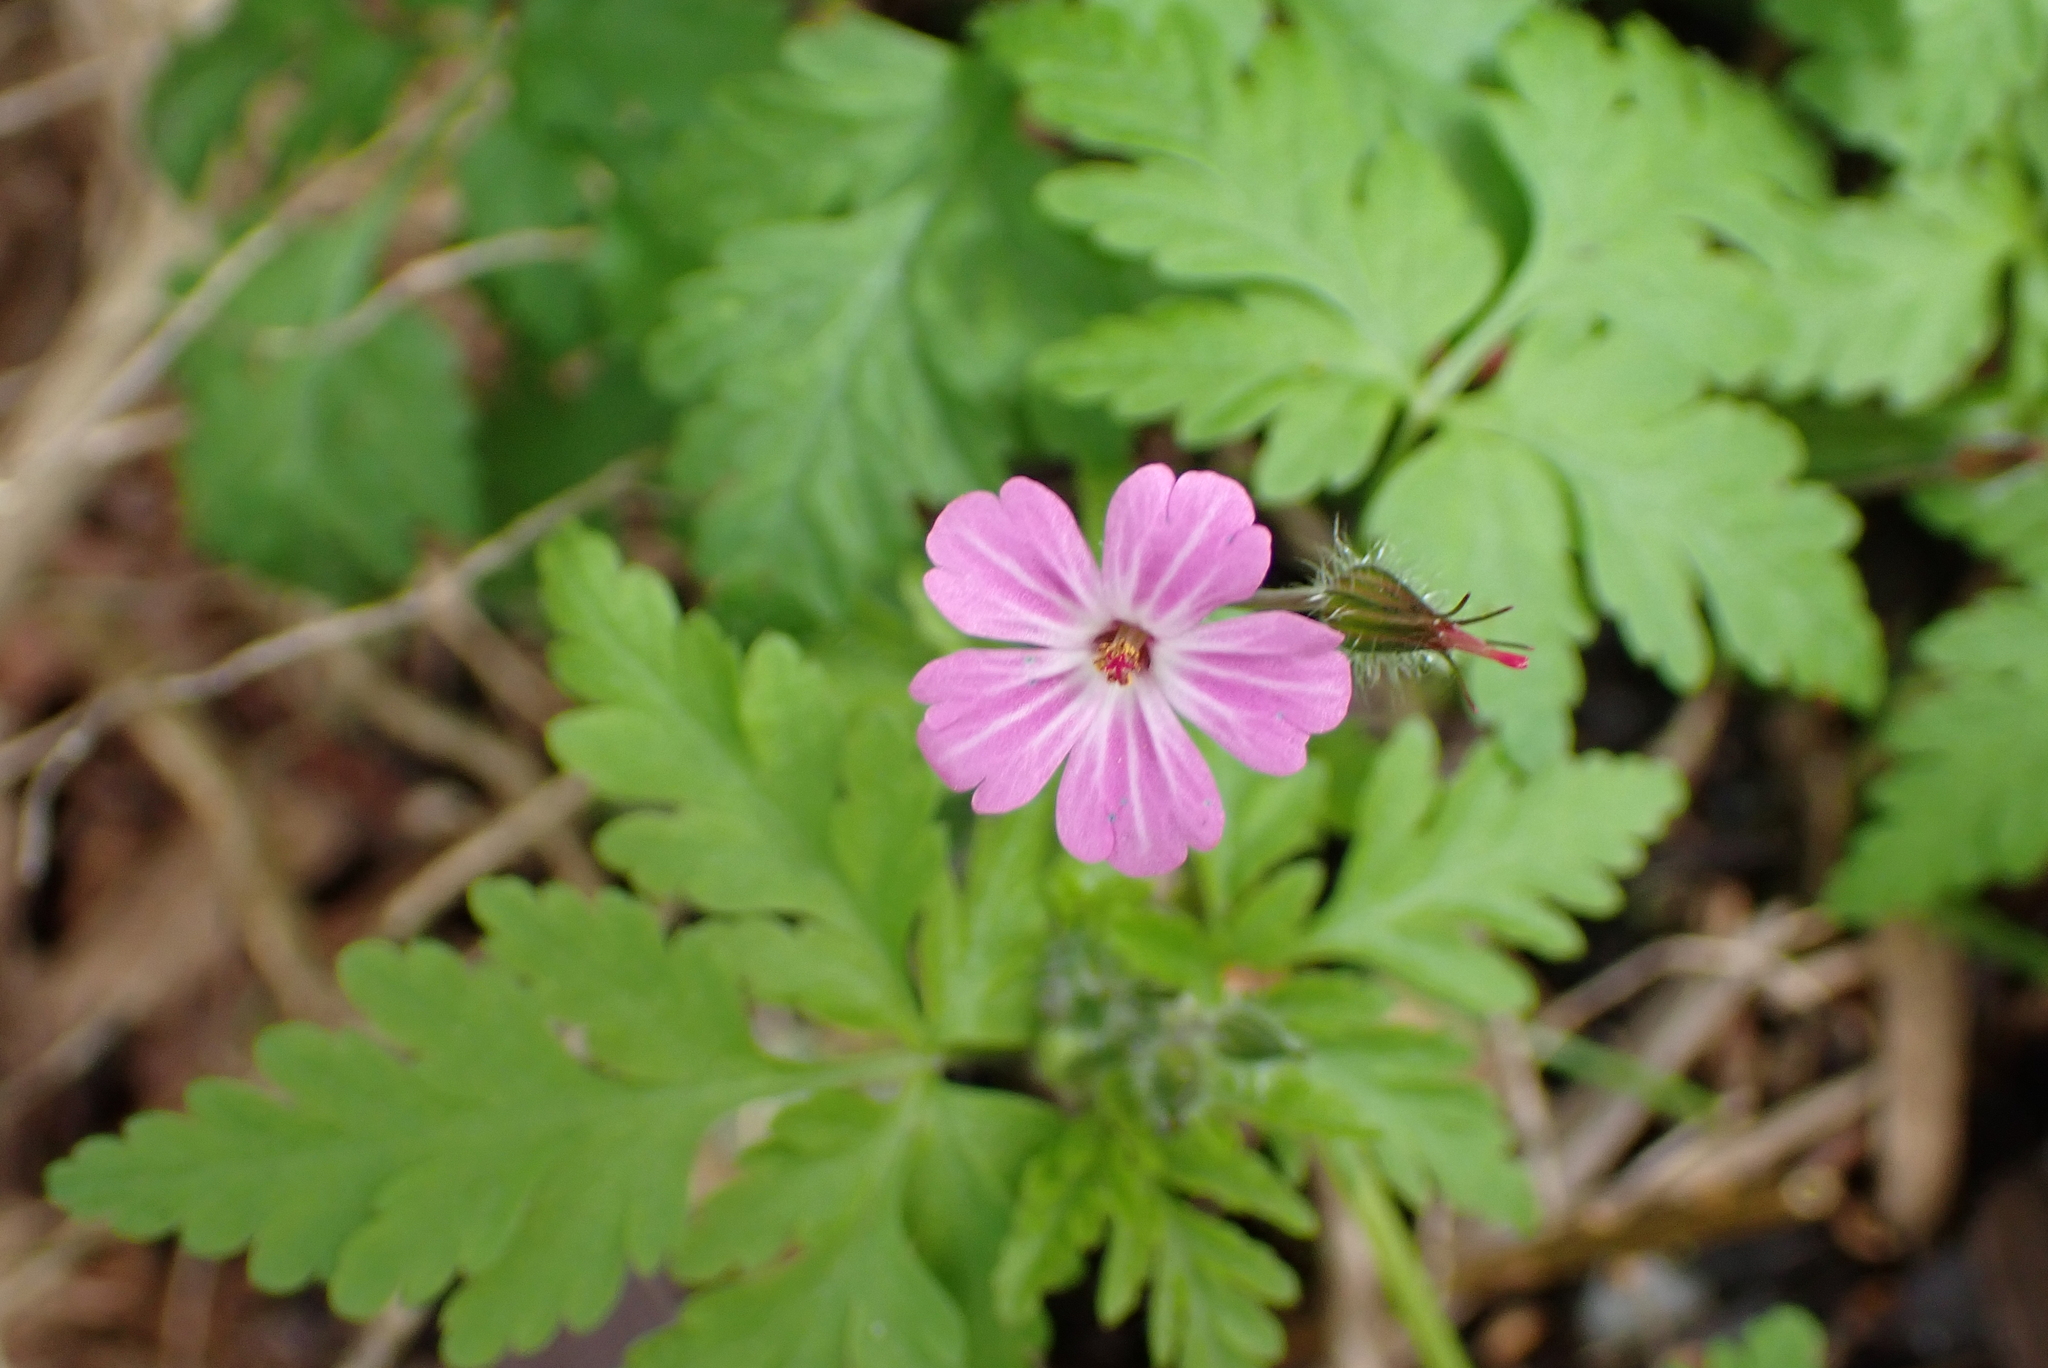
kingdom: Plantae
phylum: Tracheophyta
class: Magnoliopsida
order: Geraniales
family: Geraniaceae
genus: Geranium
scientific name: Geranium robertianum
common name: Herb-robert
